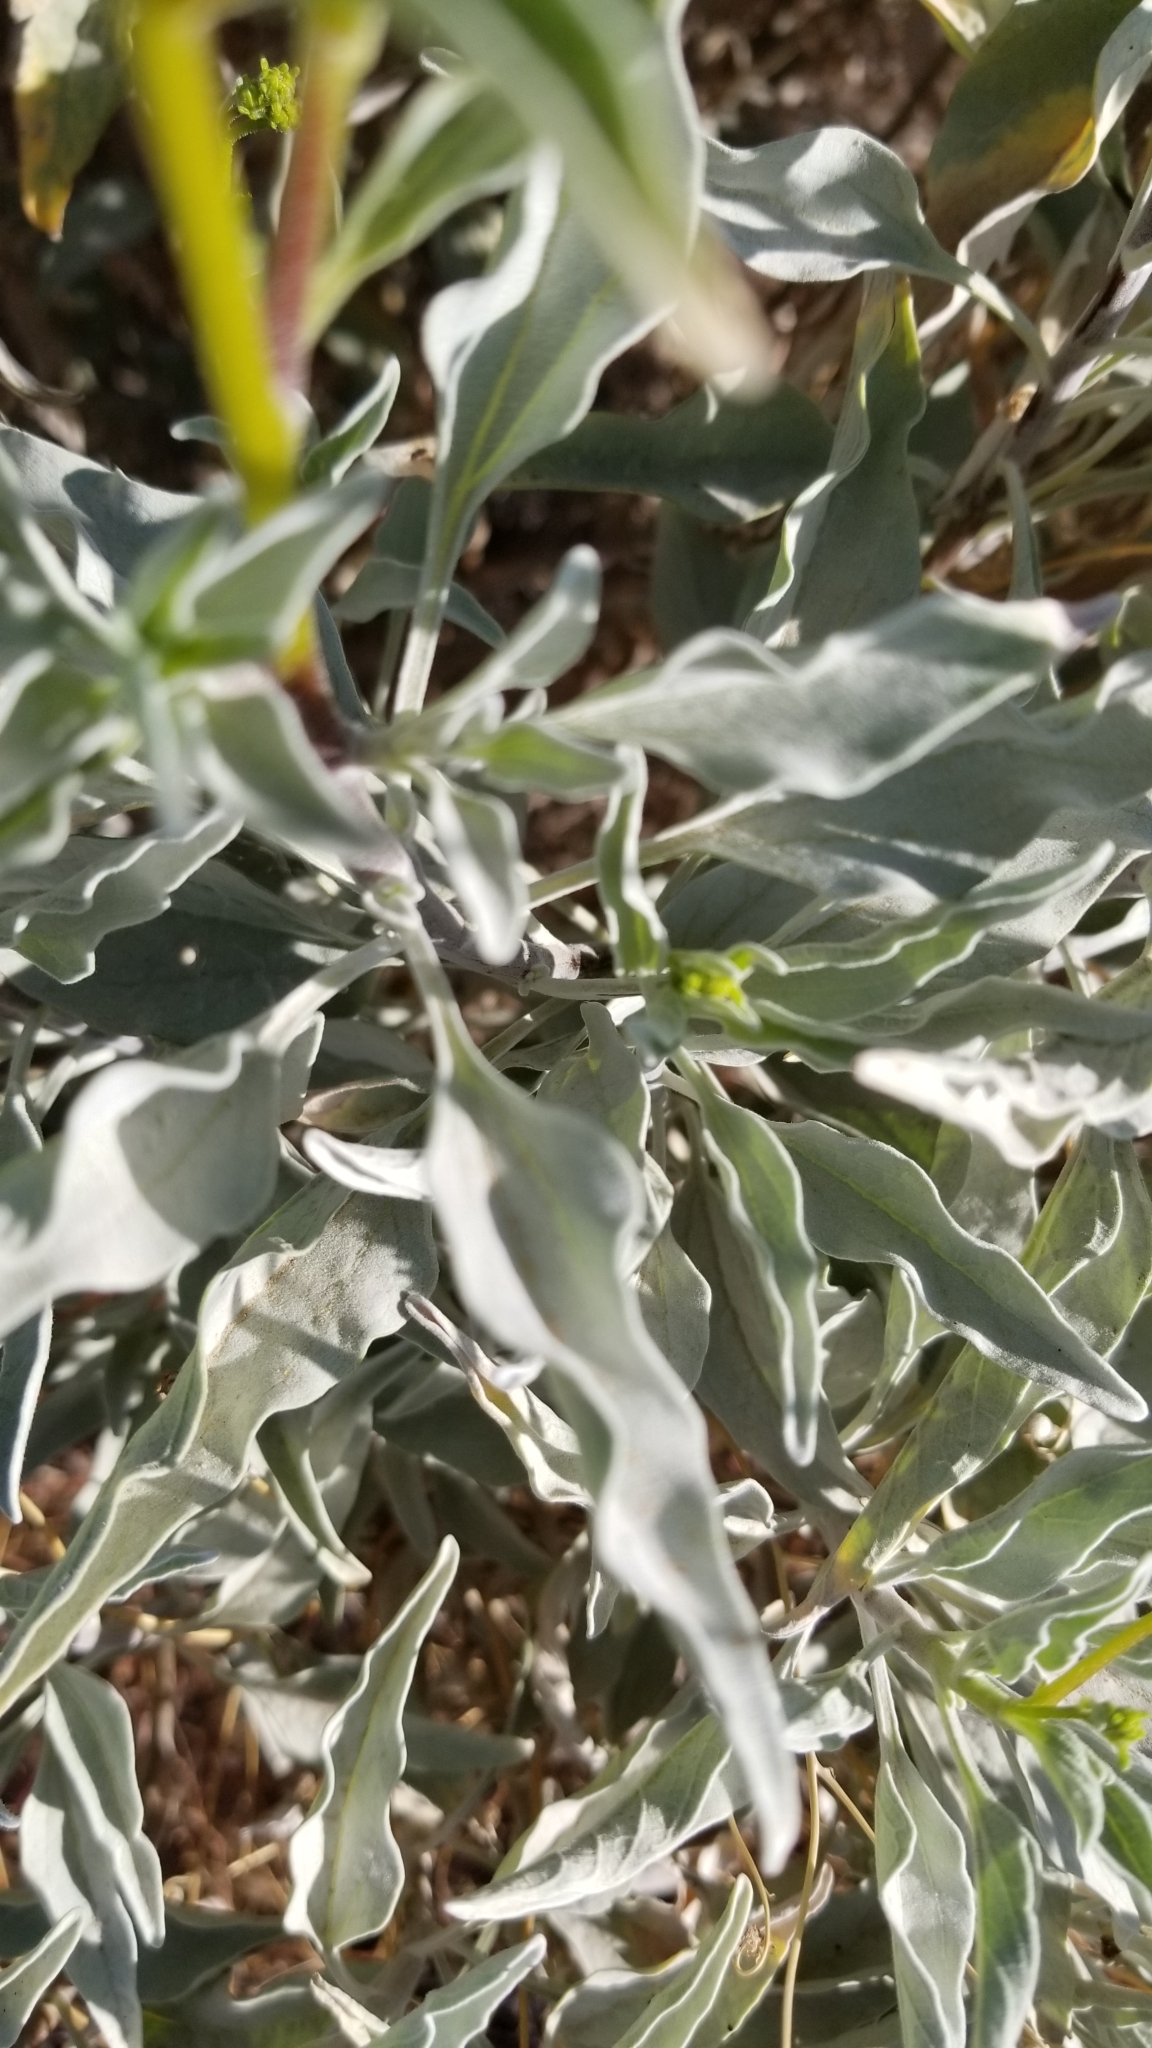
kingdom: Plantae
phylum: Tracheophyta
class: Magnoliopsida
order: Asterales
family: Asteraceae
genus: Encelia
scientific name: Encelia farinosa
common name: Brittlebush
